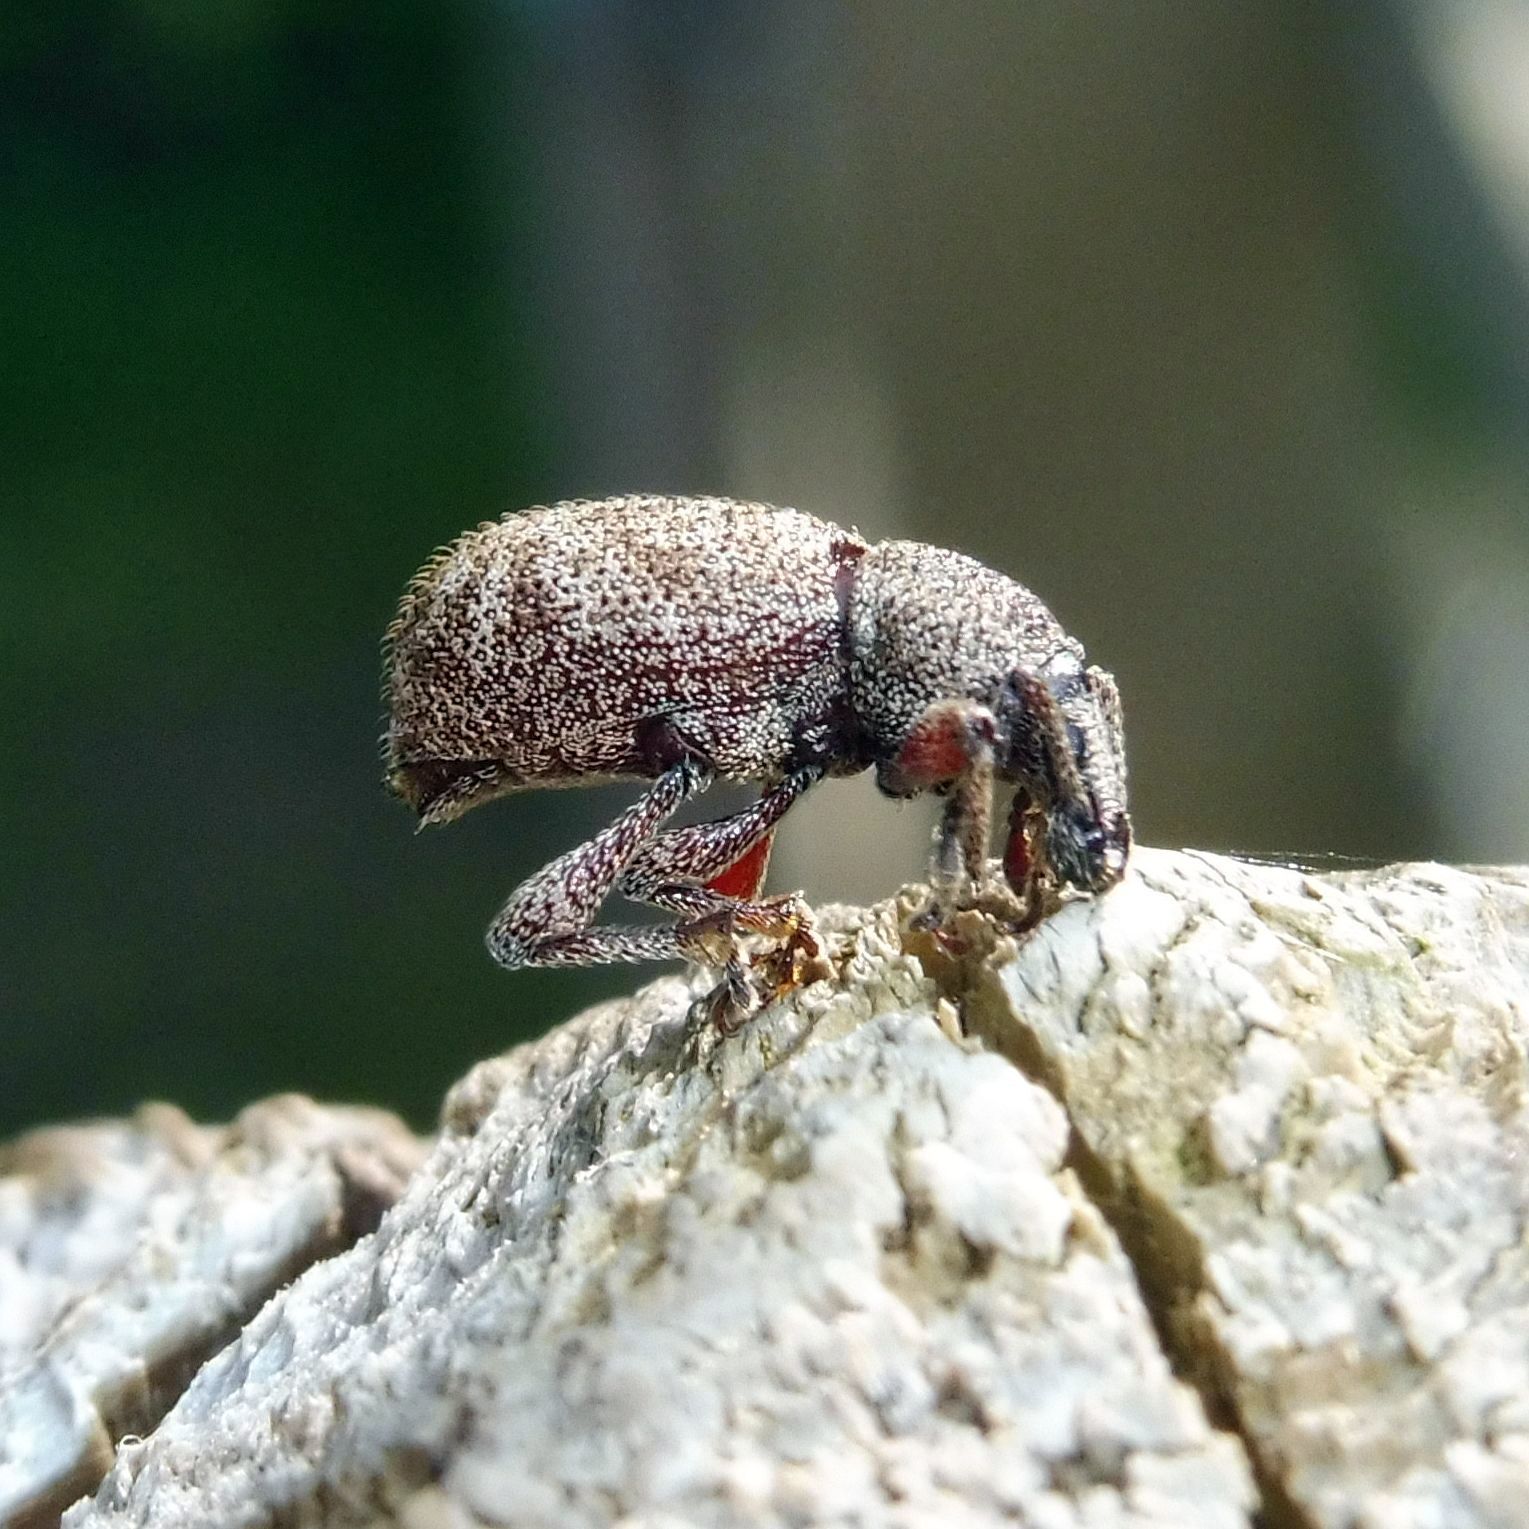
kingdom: Animalia
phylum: Arthropoda
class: Insecta
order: Coleoptera
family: Curculionidae
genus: Otiorhynchus
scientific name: Otiorhynchus singularis
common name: Clay-coloured weevil
